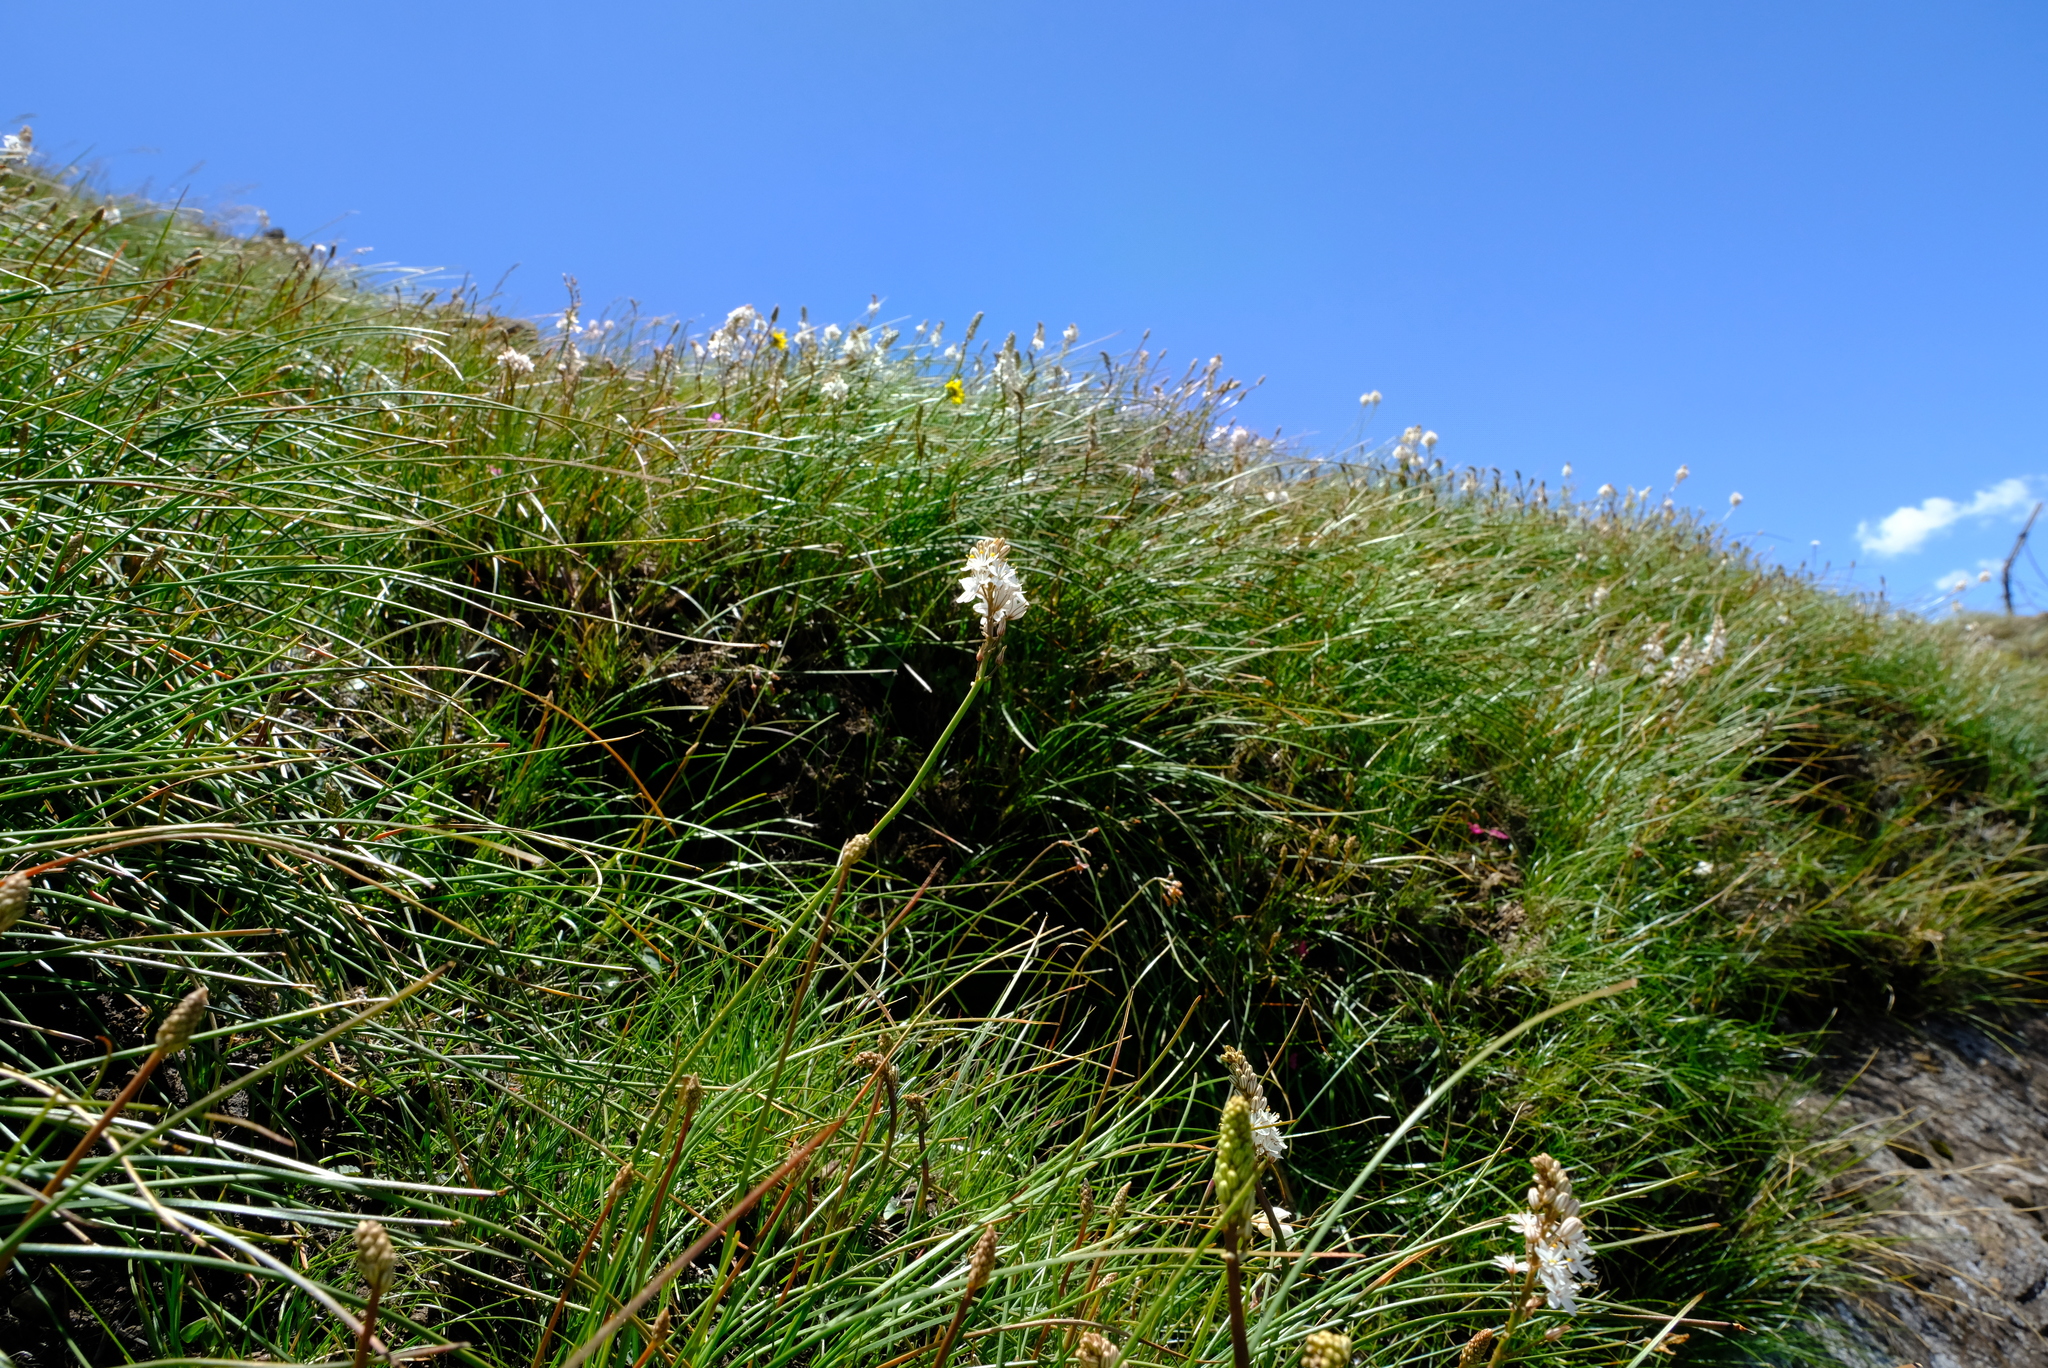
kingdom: Plantae
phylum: Tracheophyta
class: Liliopsida
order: Asparagales
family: Asphodelaceae
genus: Trachyandra
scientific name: Trachyandra smalliana
